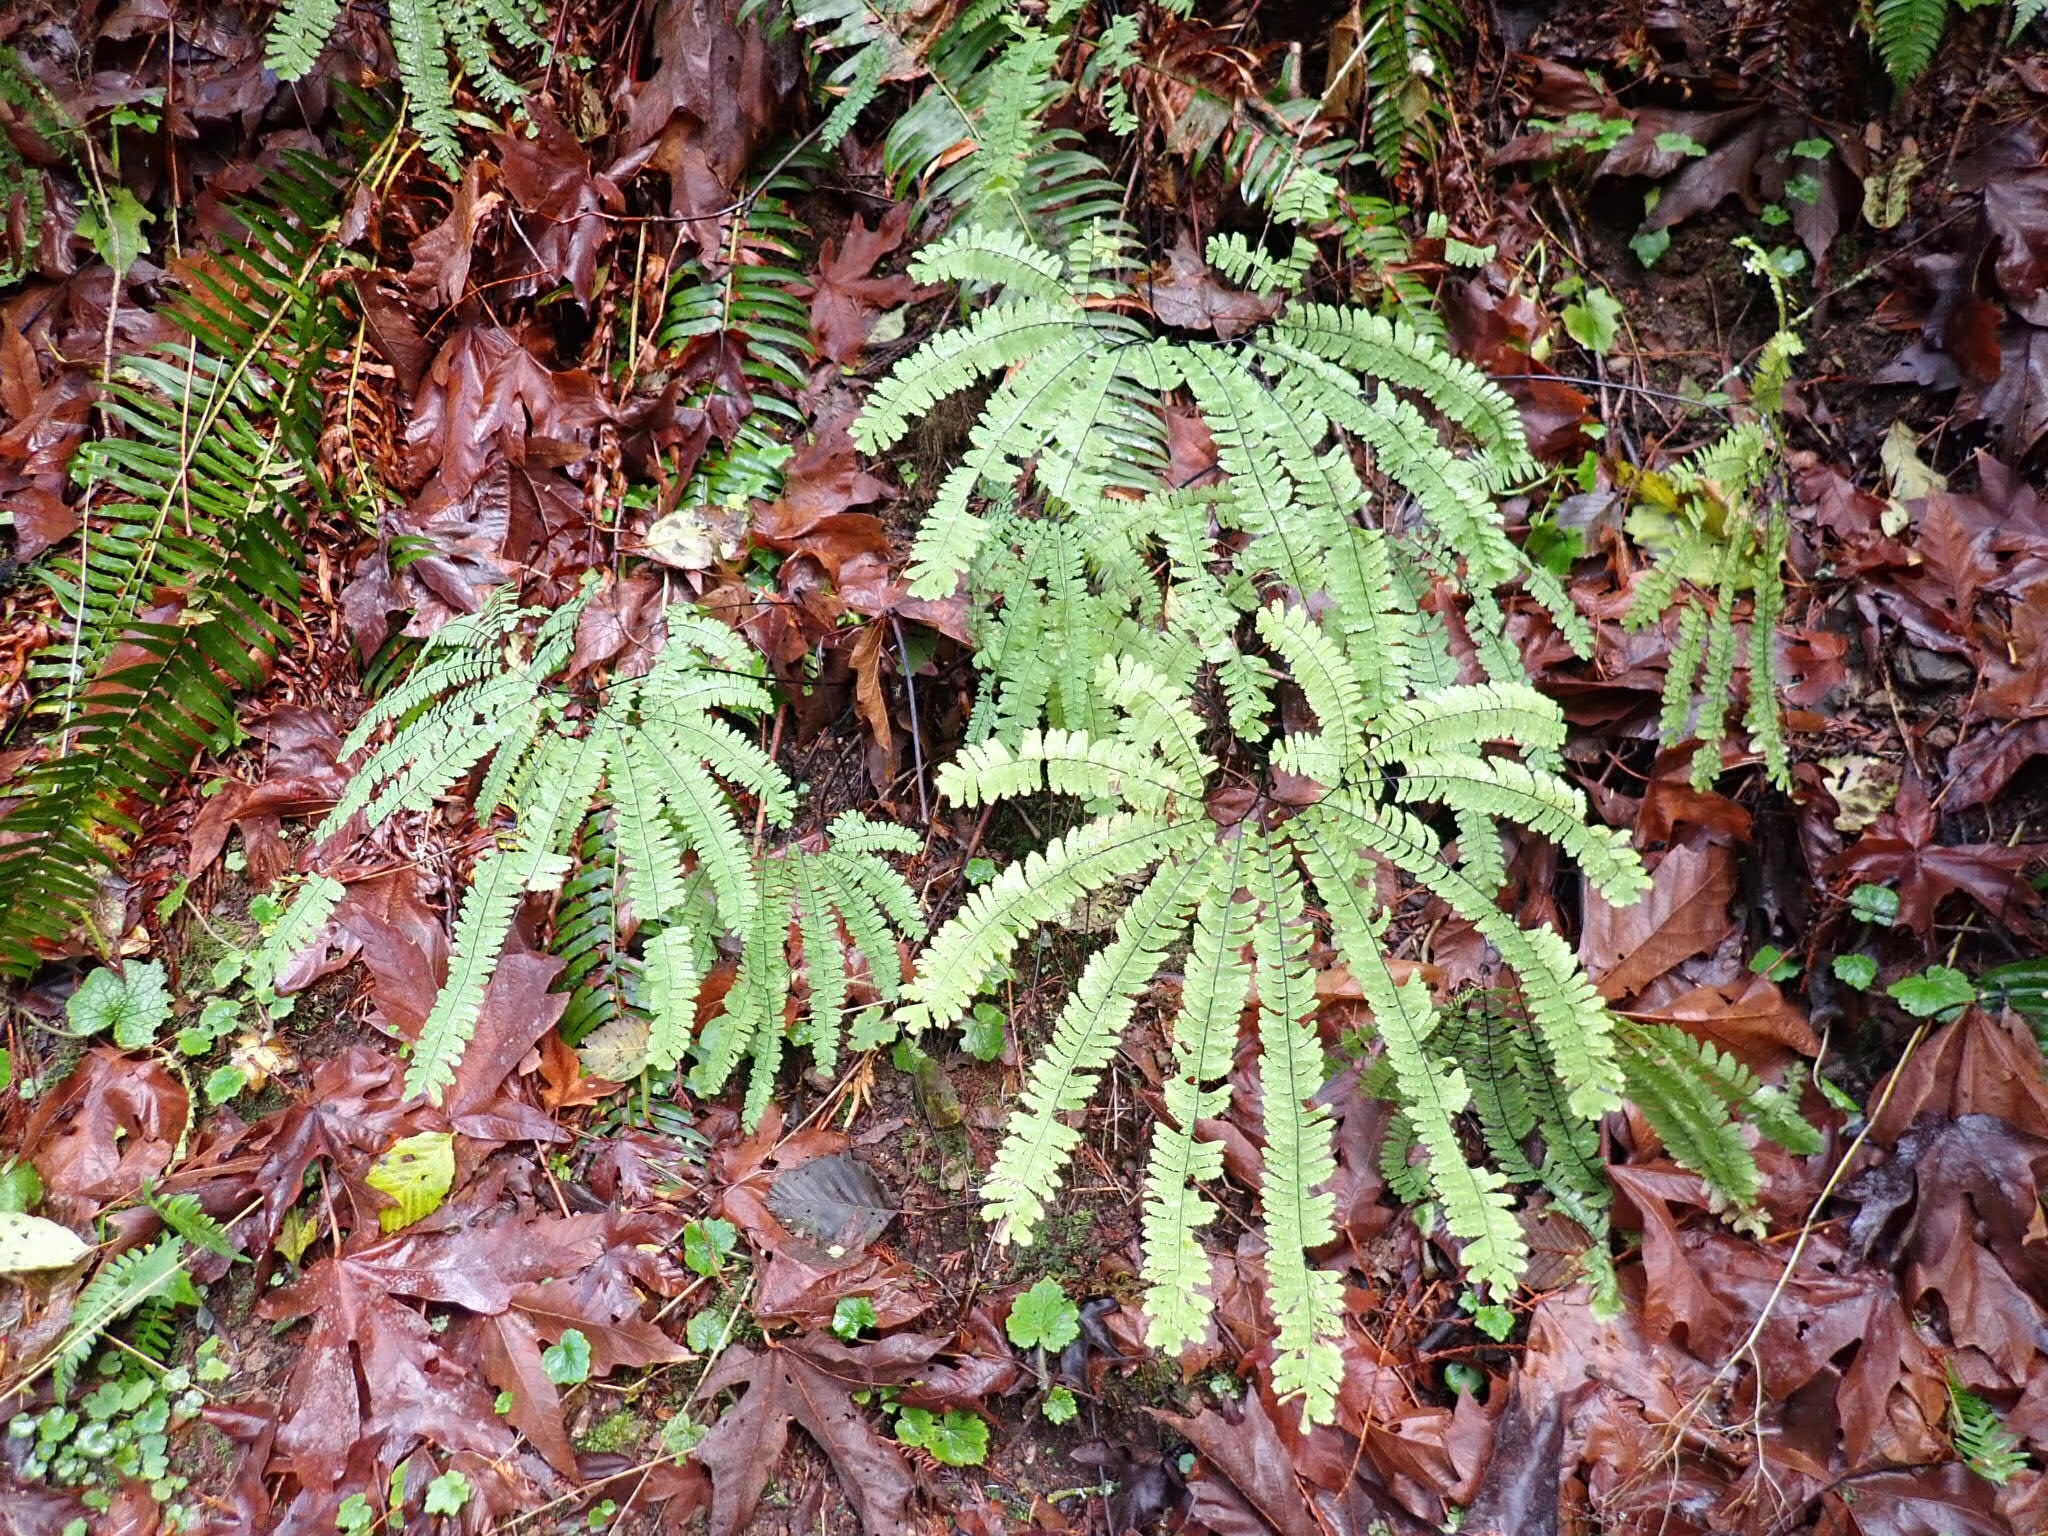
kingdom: Plantae
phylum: Tracheophyta
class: Polypodiopsida
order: Polypodiales
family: Pteridaceae
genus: Adiantum
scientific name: Adiantum aleuticum
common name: Aleutian maidenhair fern
